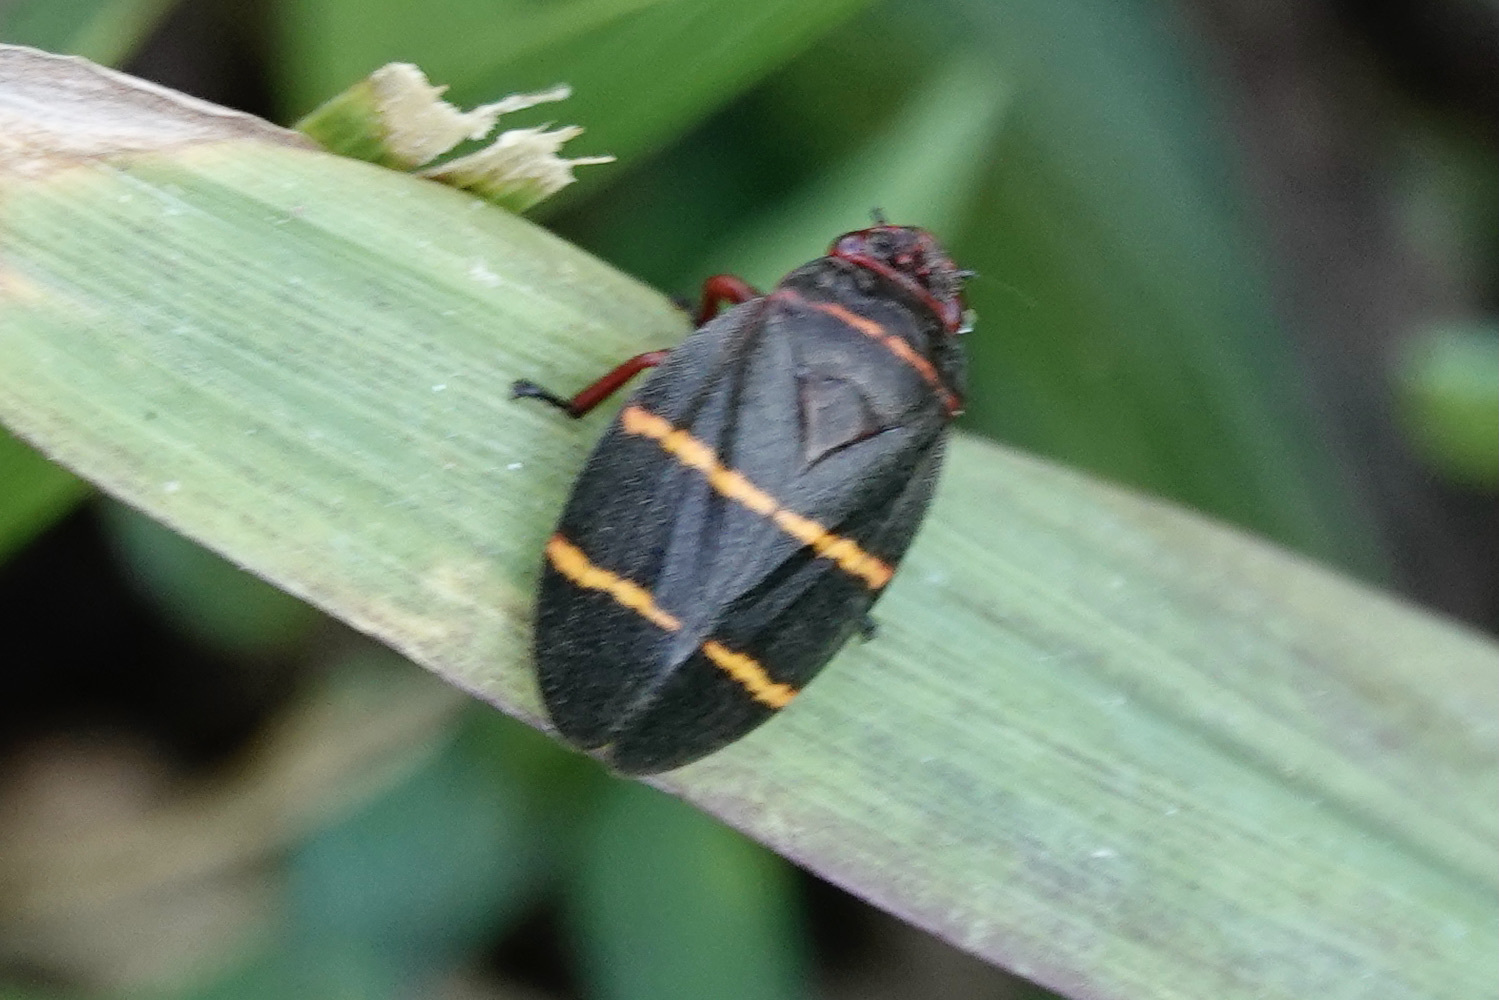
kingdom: Animalia
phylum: Arthropoda
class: Insecta
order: Hemiptera
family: Cercopidae
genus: Prosapia
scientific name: Prosapia bicincta
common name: Twolined spittlebug
